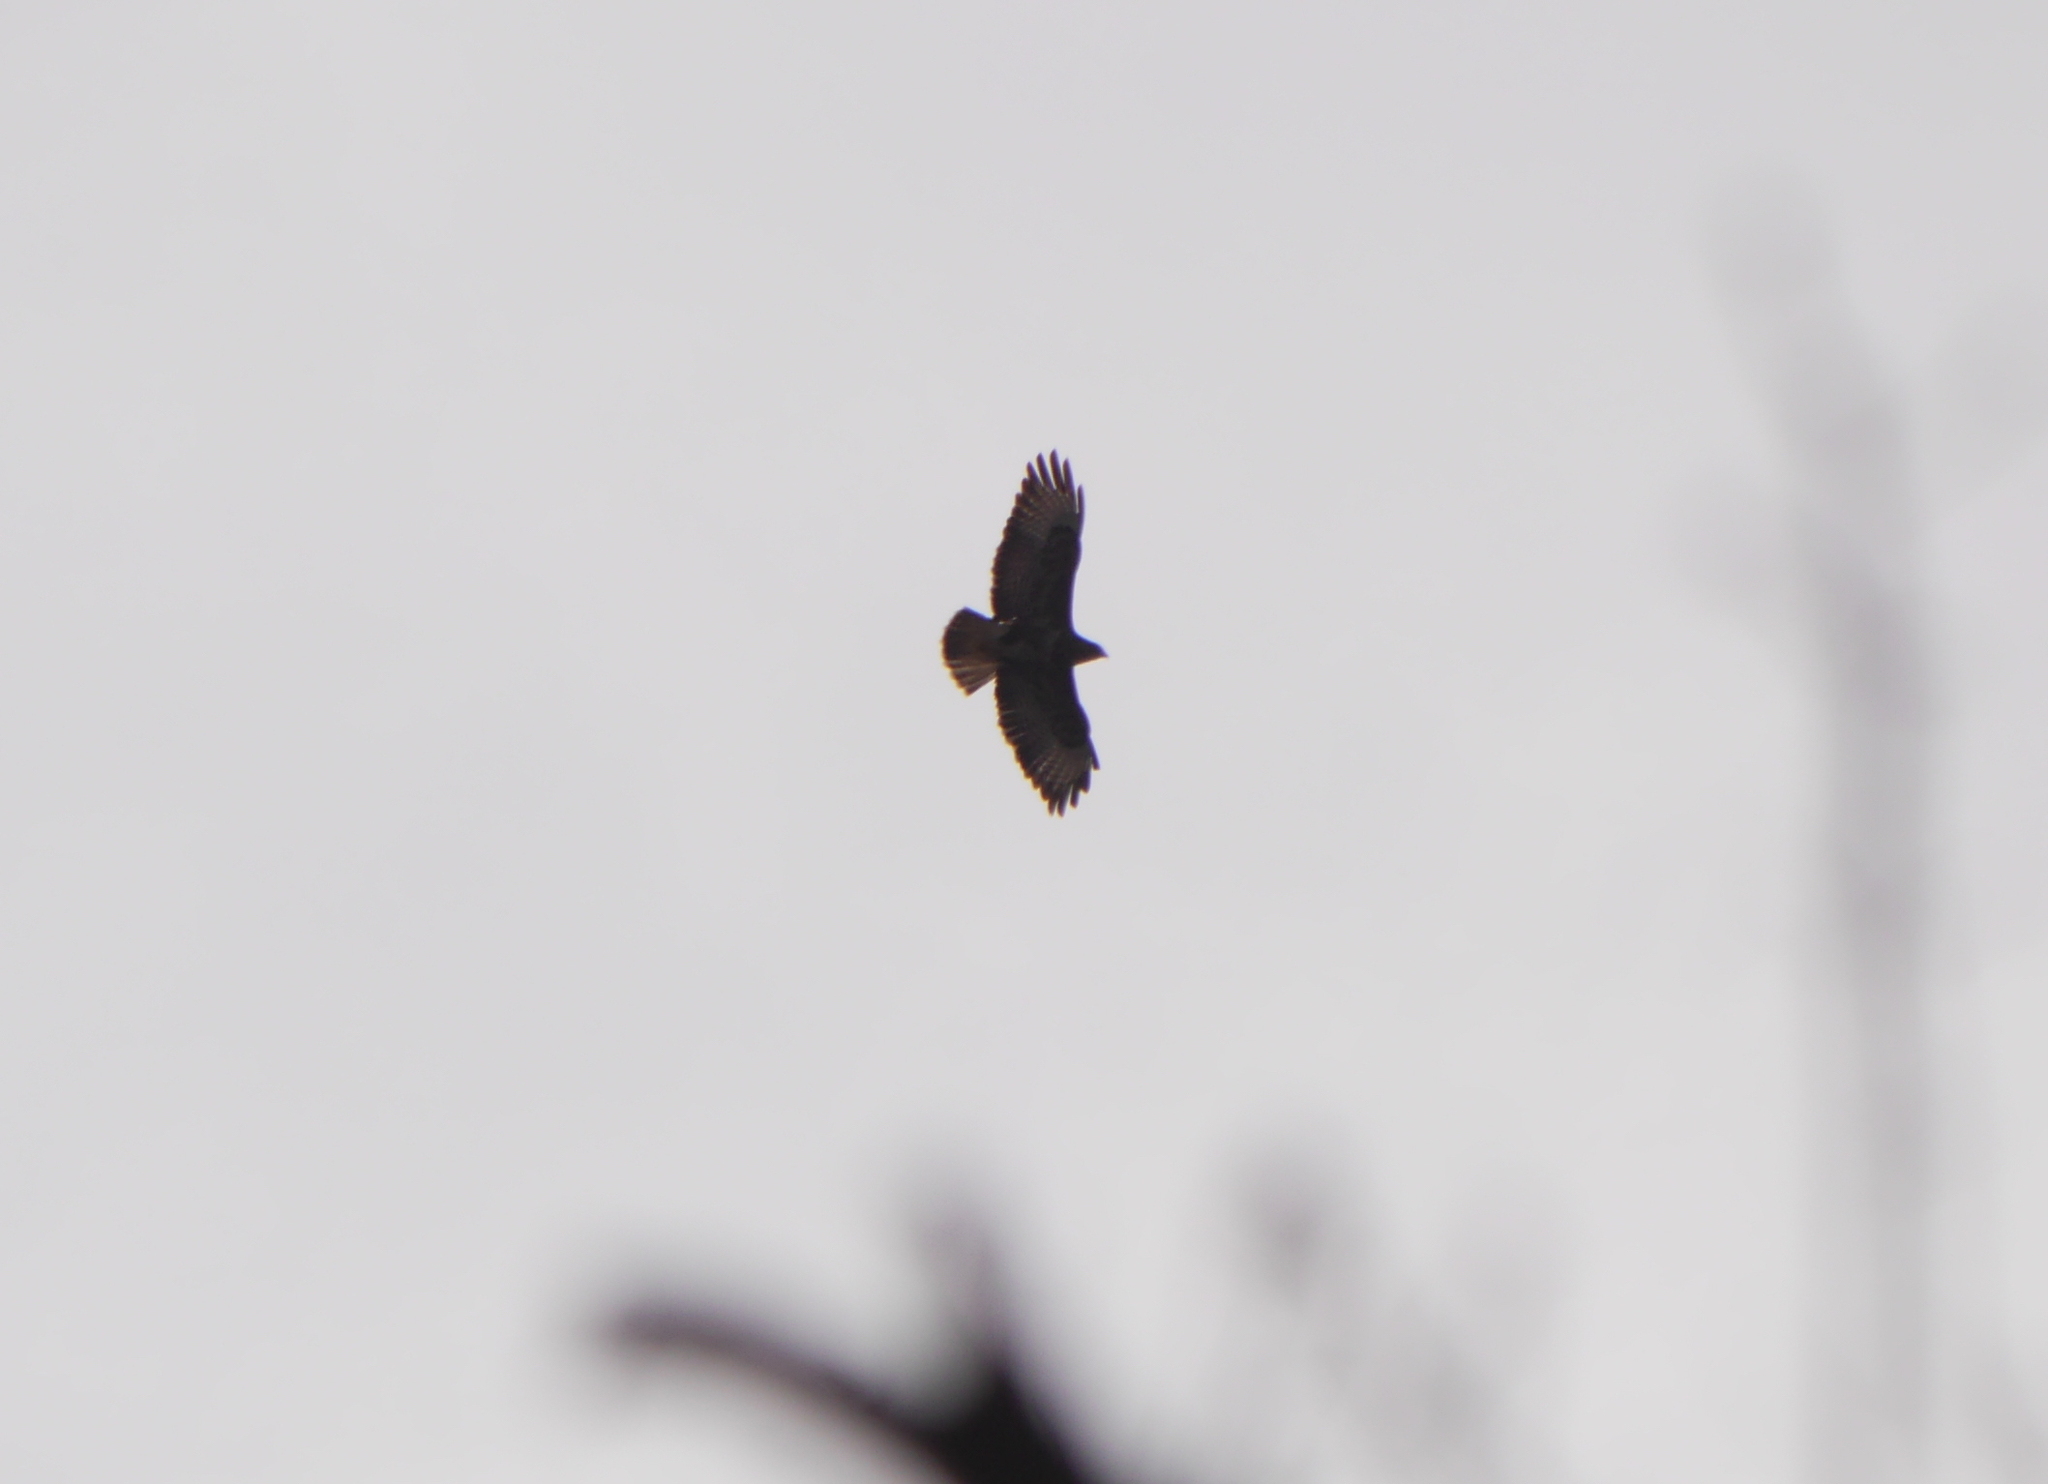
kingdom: Animalia
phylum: Chordata
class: Aves
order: Accipitriformes
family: Accipitridae
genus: Buteo
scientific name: Buteo buteo
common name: Common buzzard
